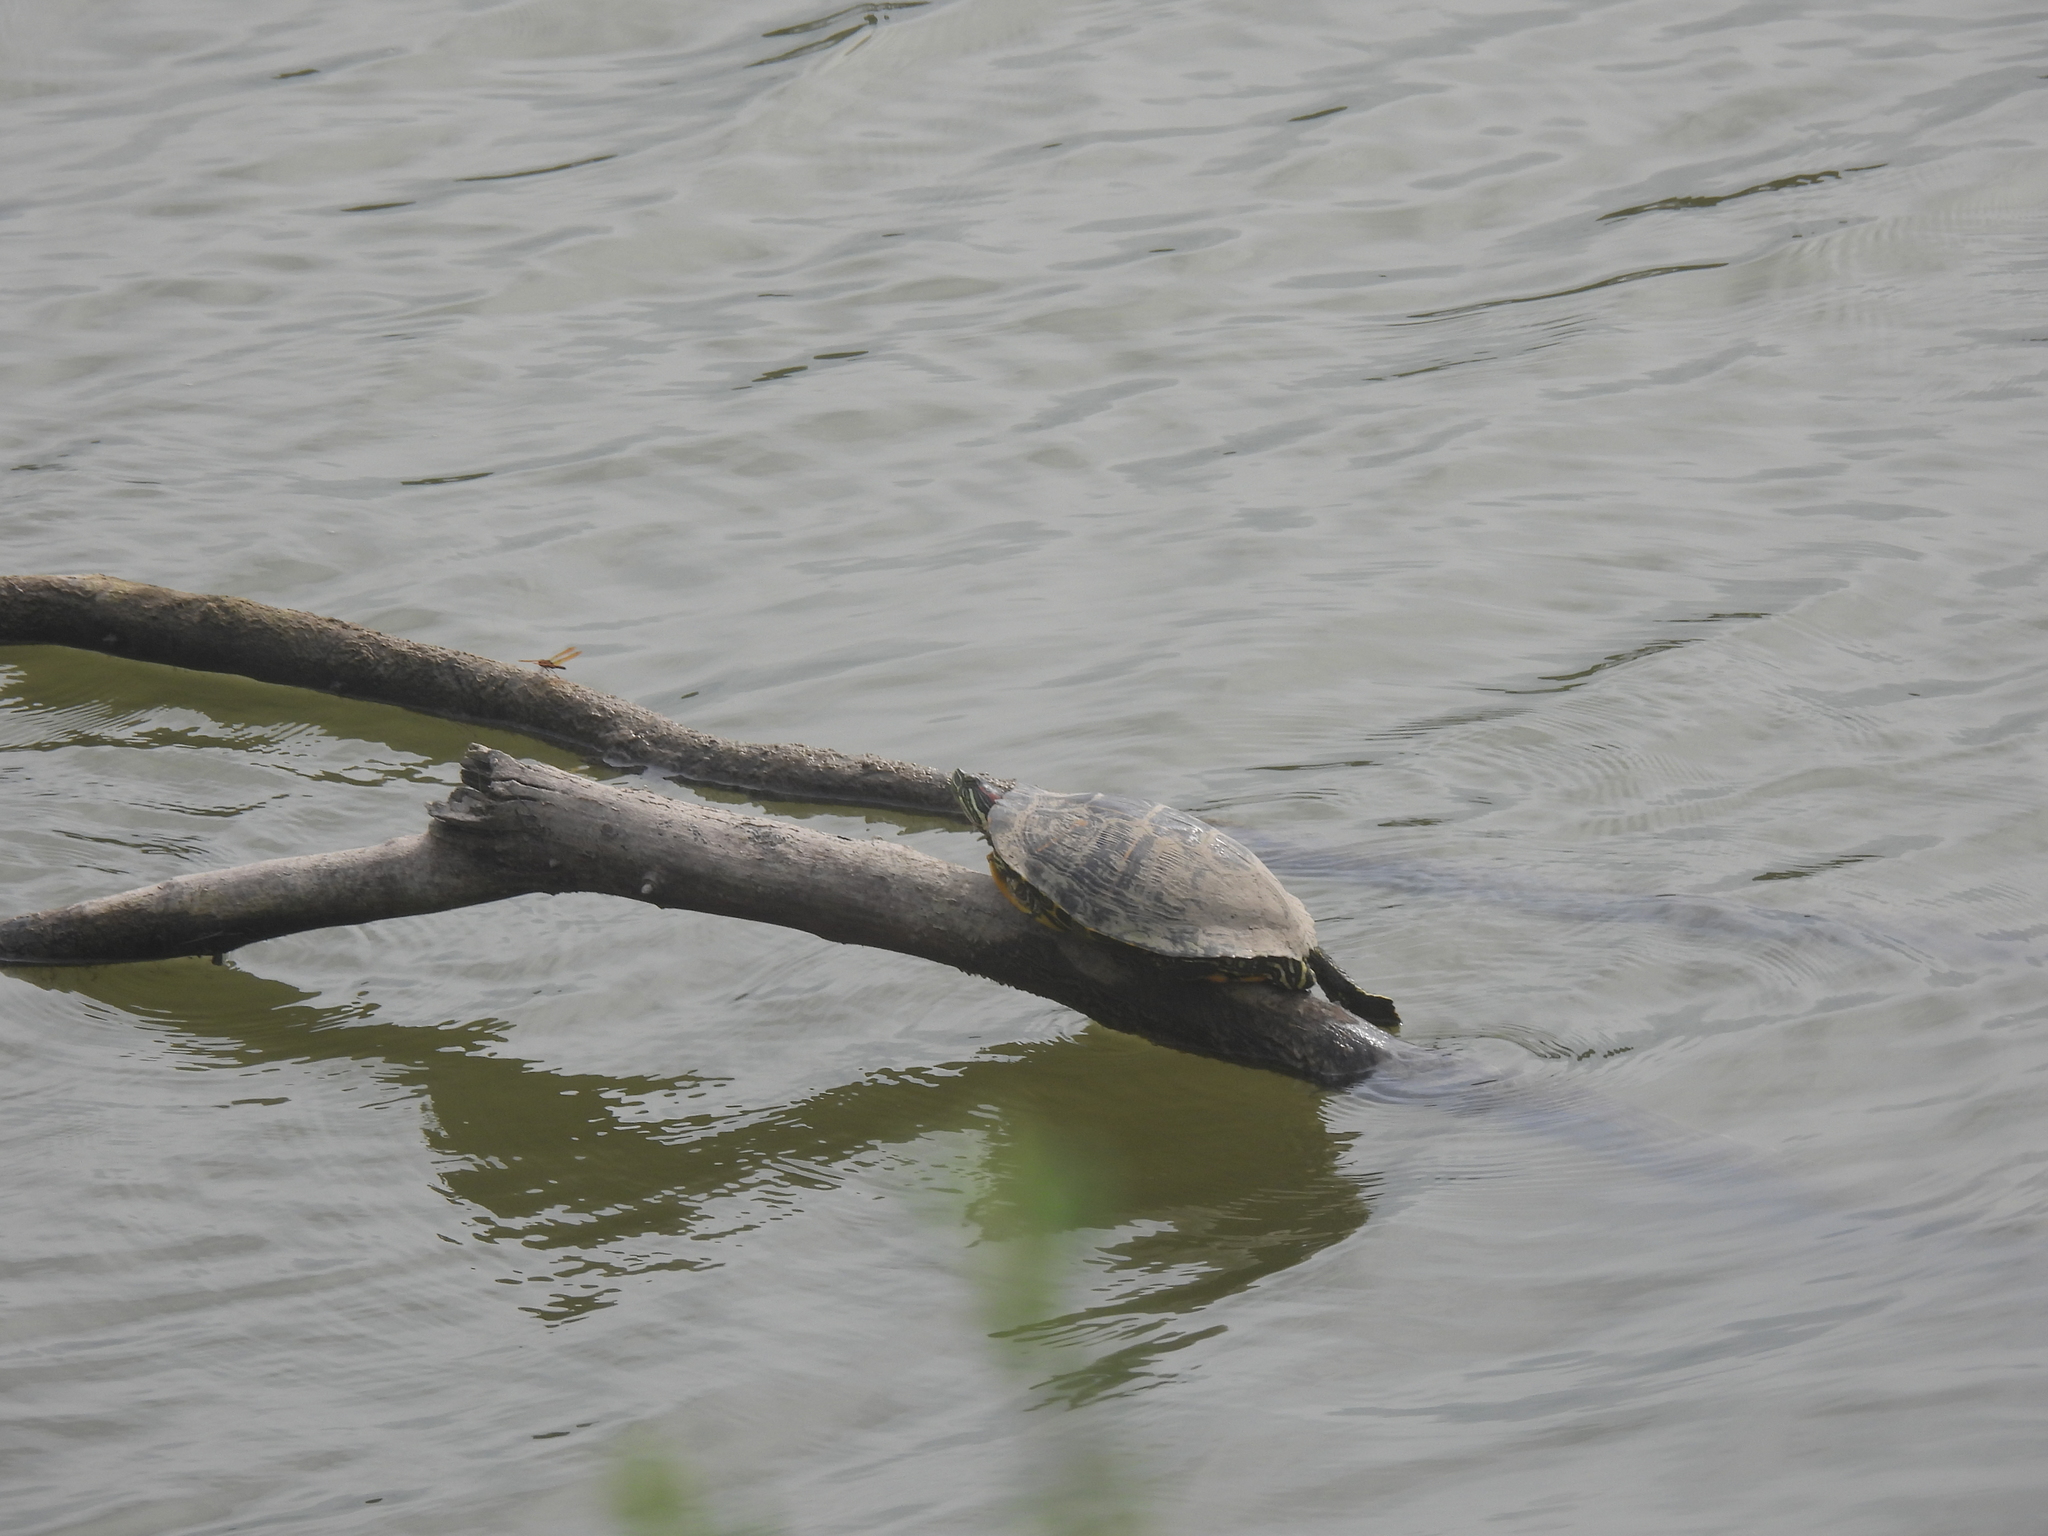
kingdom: Animalia
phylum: Chordata
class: Testudines
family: Emydidae
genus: Trachemys
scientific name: Trachemys scripta
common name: Slider
